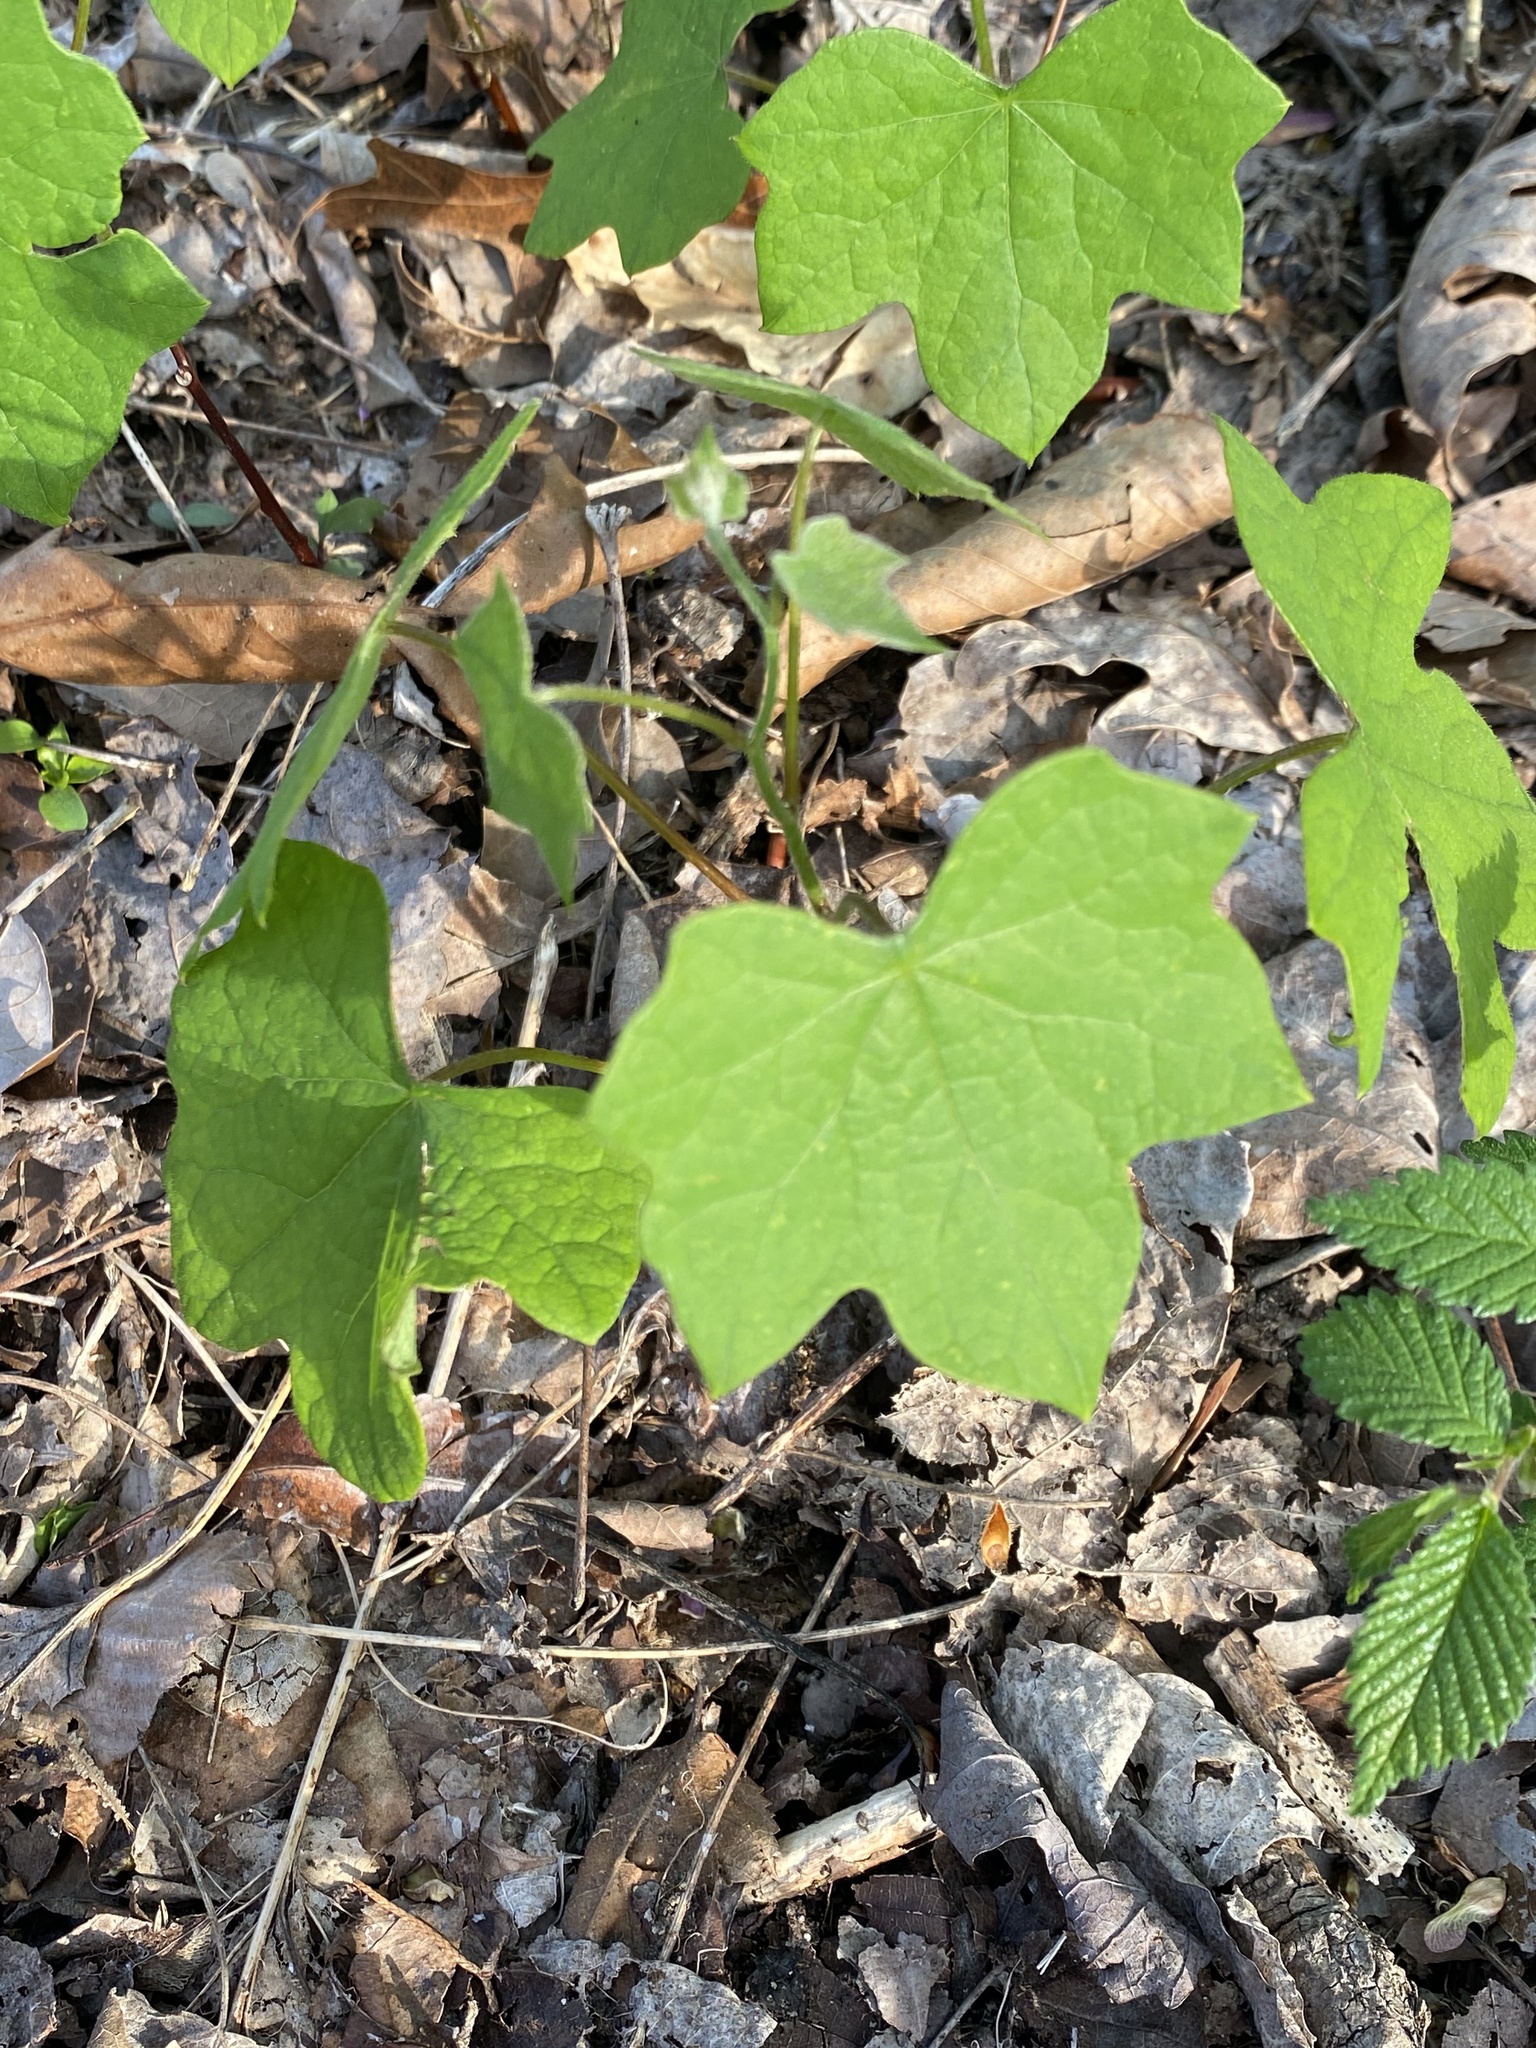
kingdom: Plantae
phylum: Tracheophyta
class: Magnoliopsida
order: Ranunculales
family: Menispermaceae
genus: Menispermum
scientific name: Menispermum canadense
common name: Moonseed
